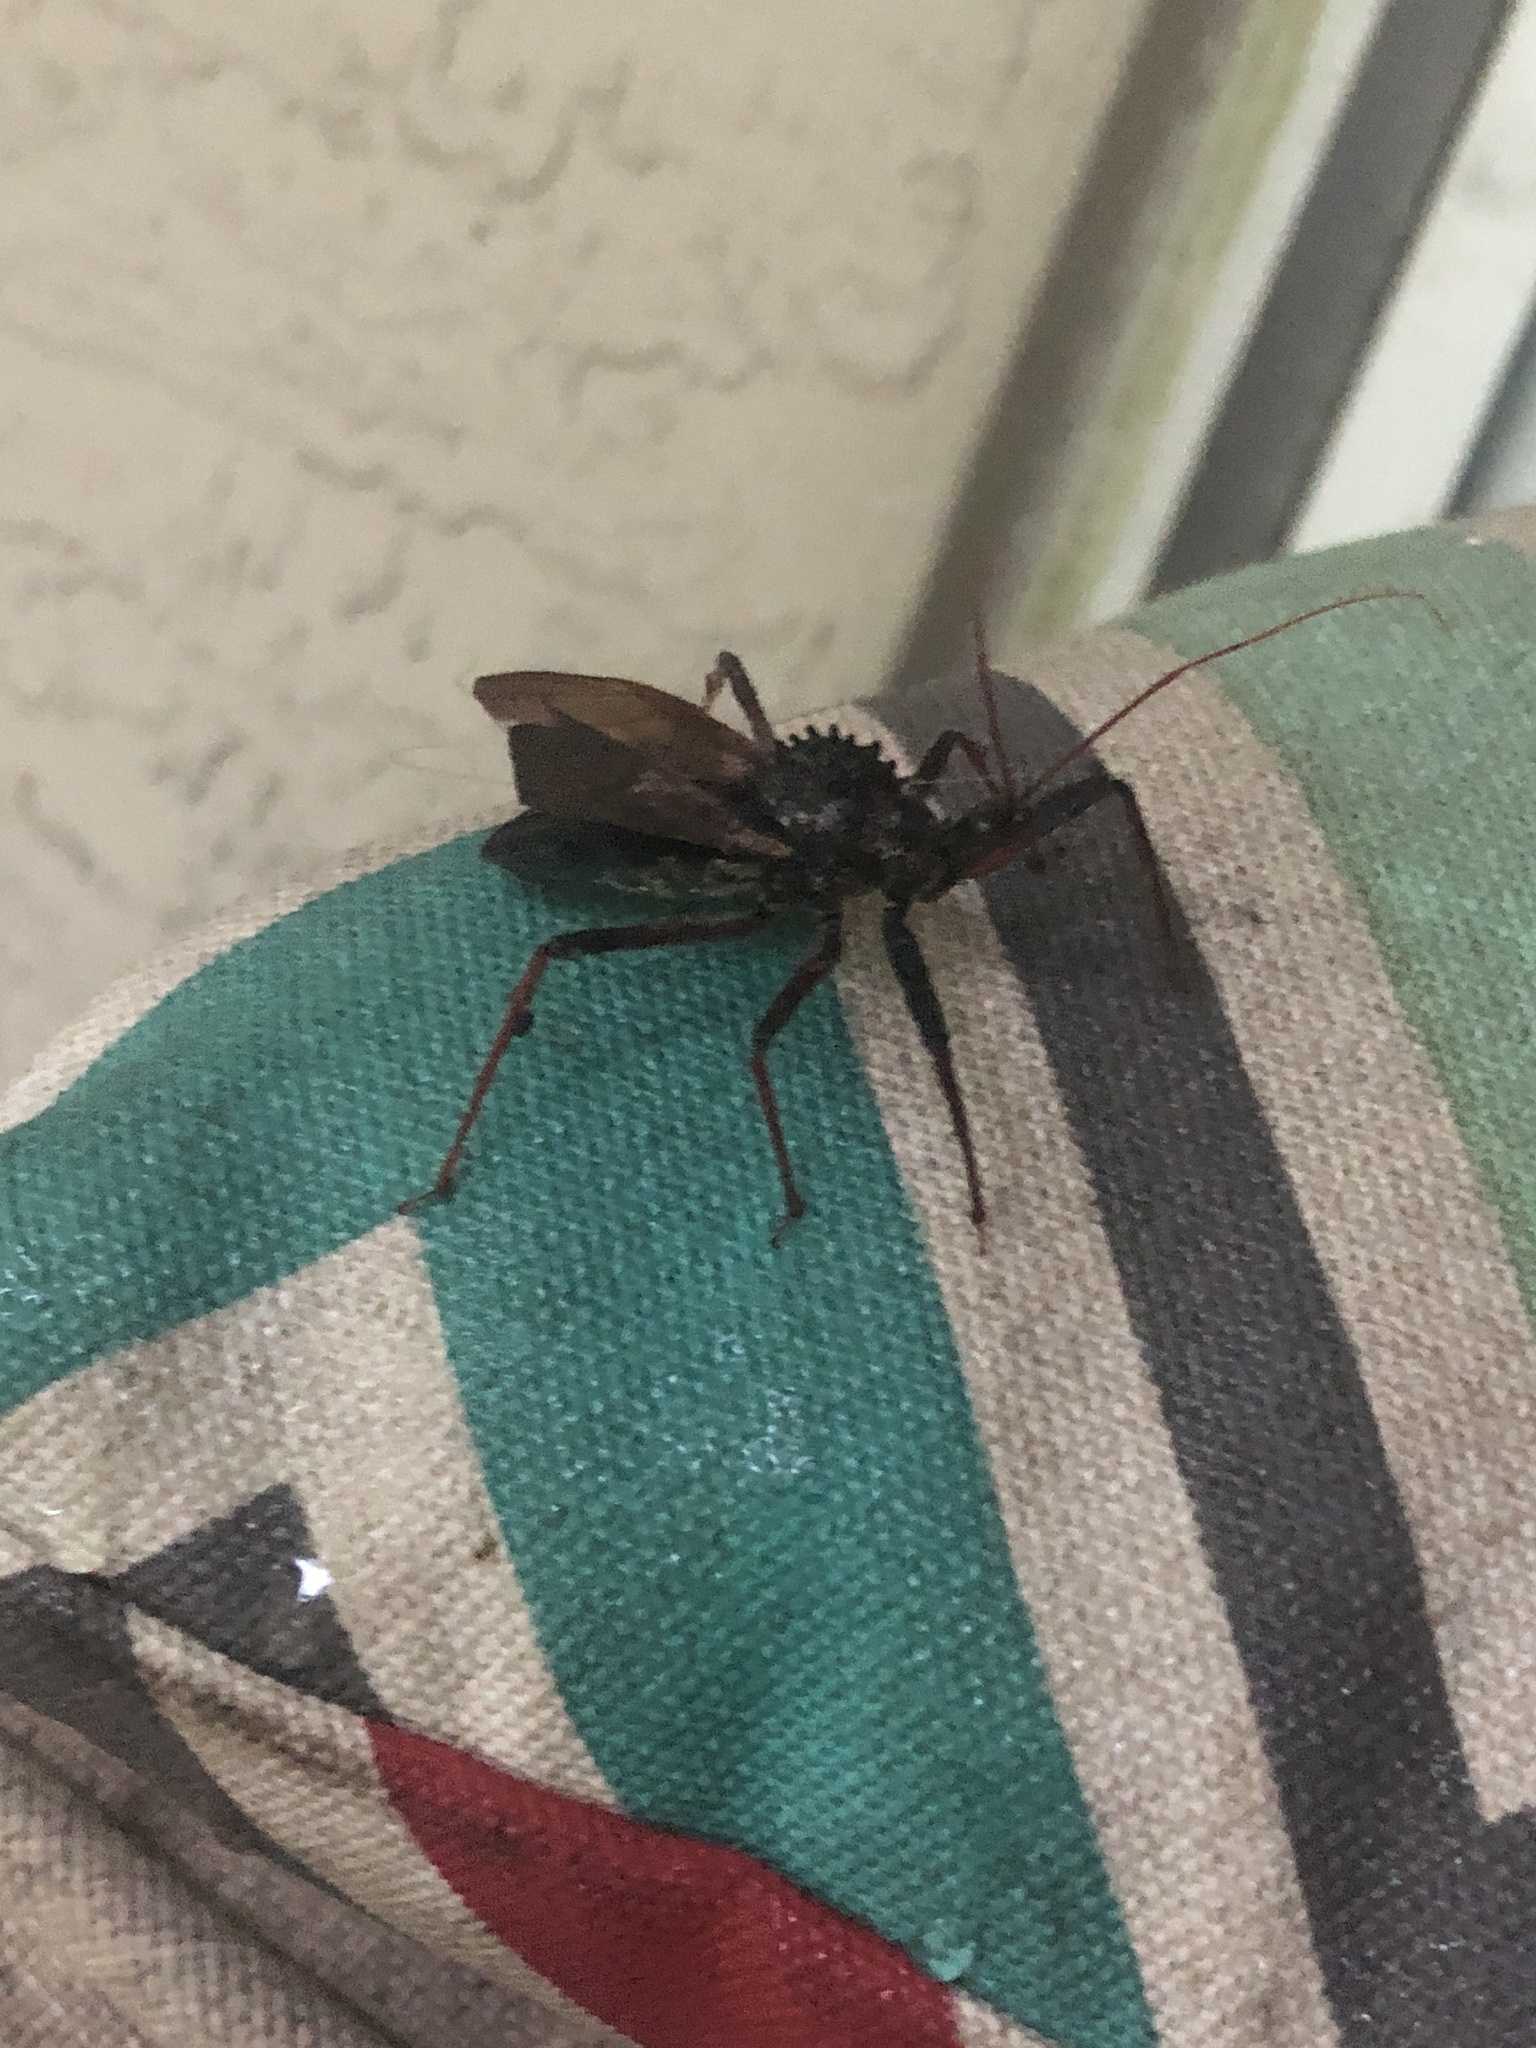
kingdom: Animalia
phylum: Arthropoda
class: Insecta
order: Hemiptera
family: Reduviidae
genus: Arilus
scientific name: Arilus cristatus
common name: North american wheel bug
